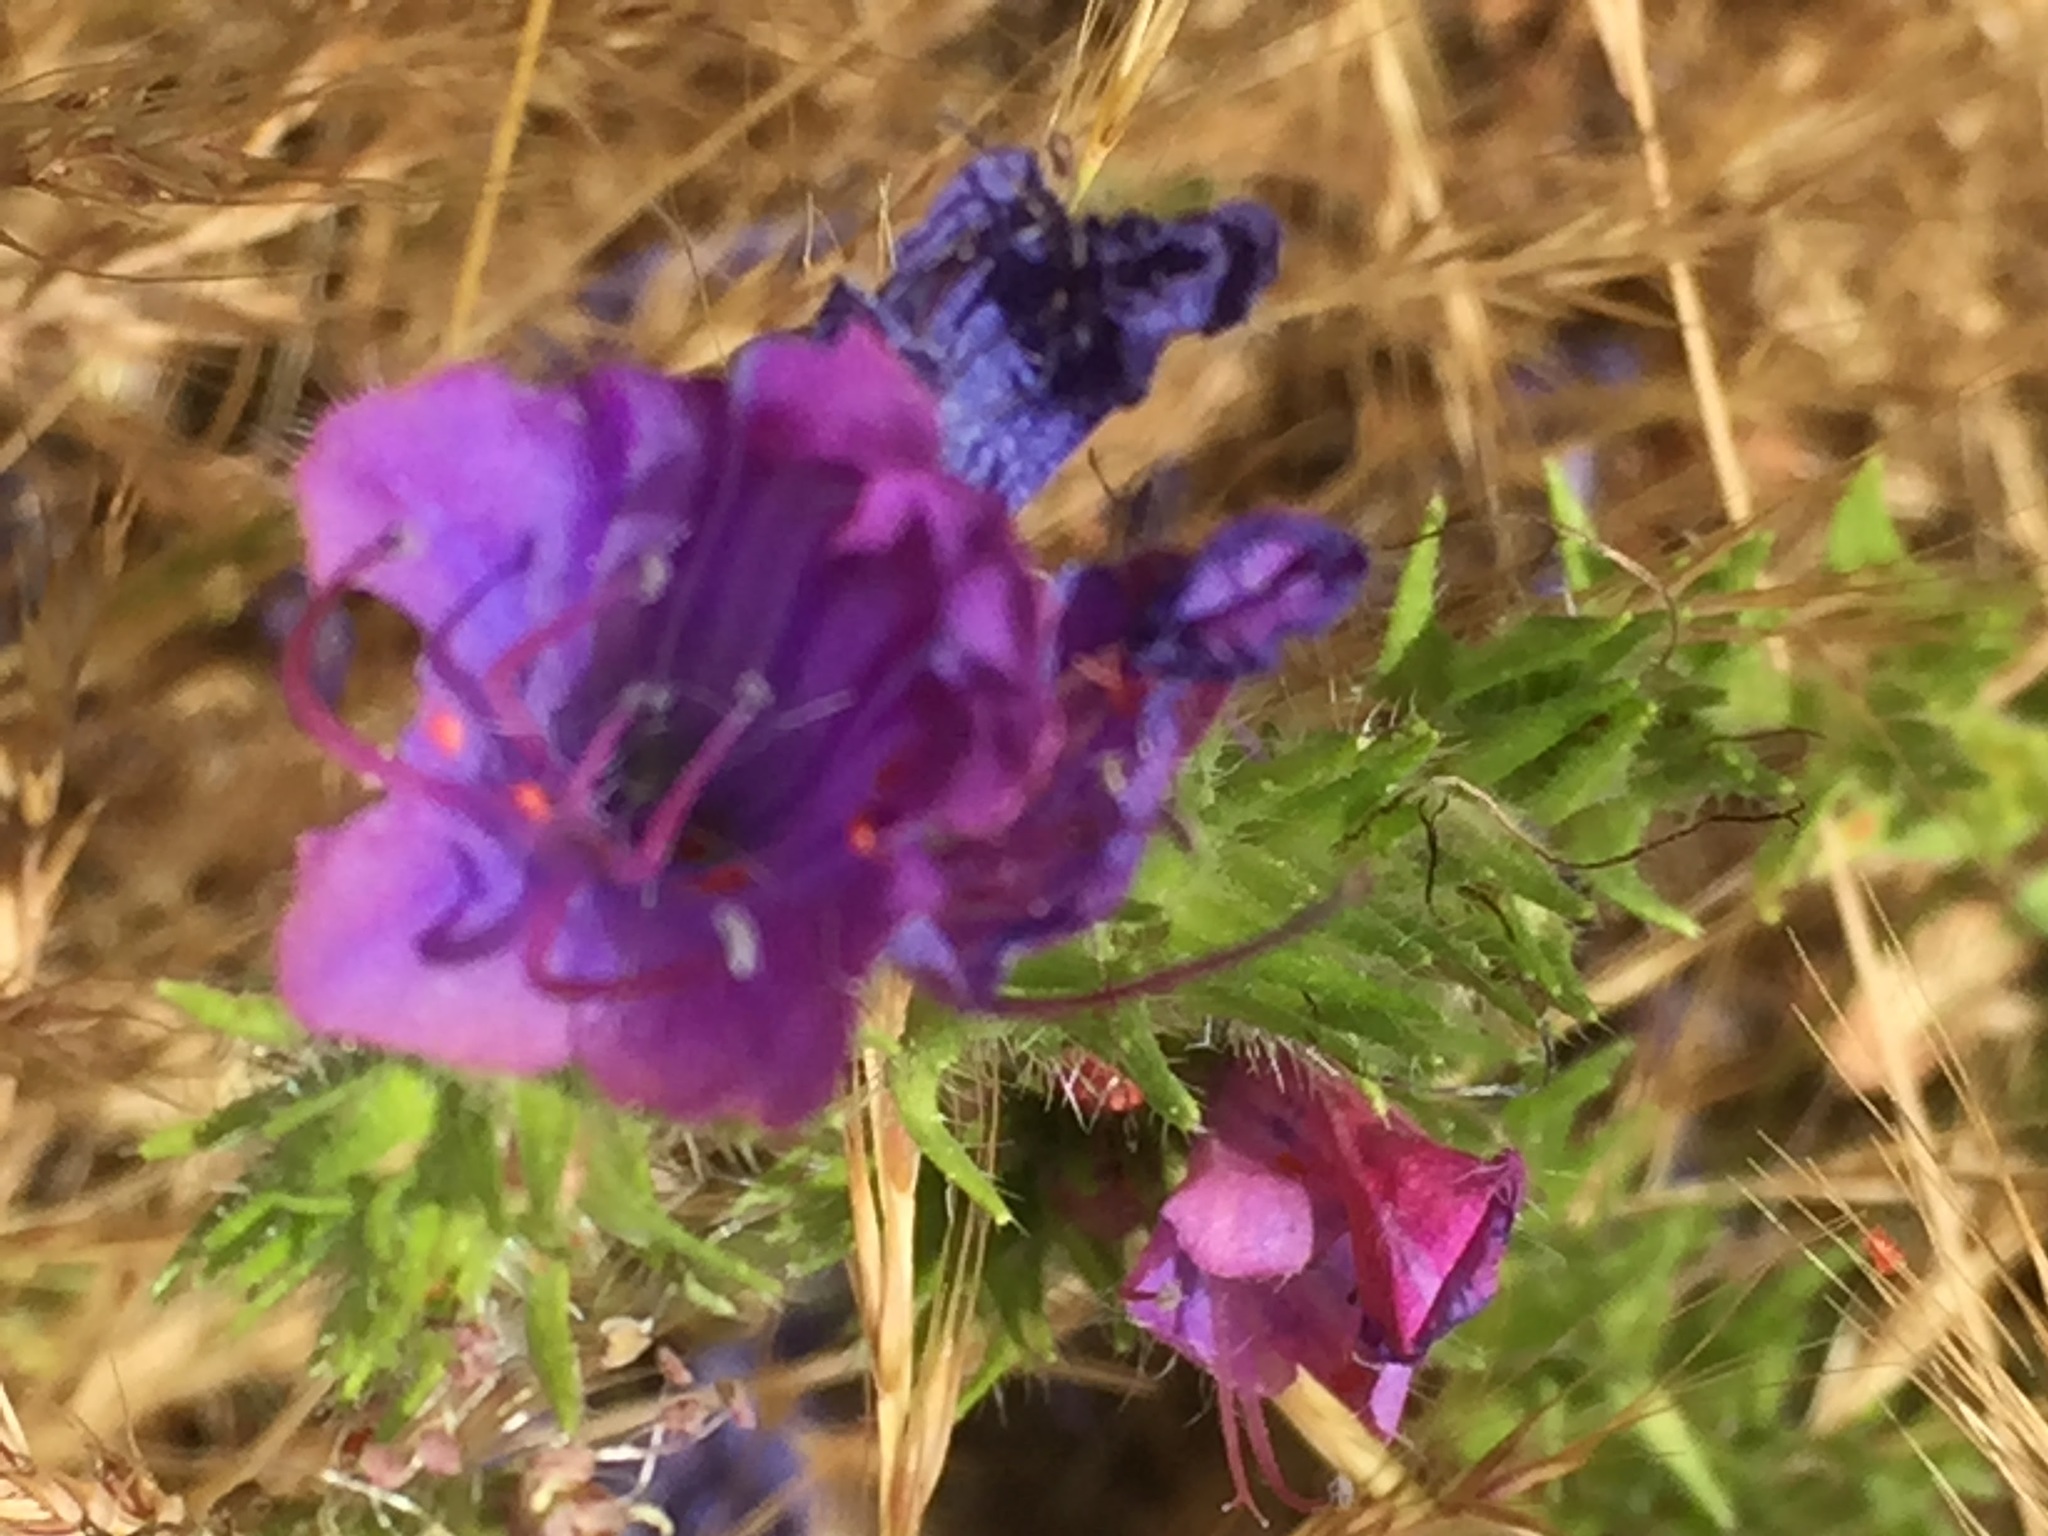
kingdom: Plantae
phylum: Tracheophyta
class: Magnoliopsida
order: Boraginales
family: Boraginaceae
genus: Echium
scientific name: Echium plantagineum
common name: Purple viper's-bugloss
